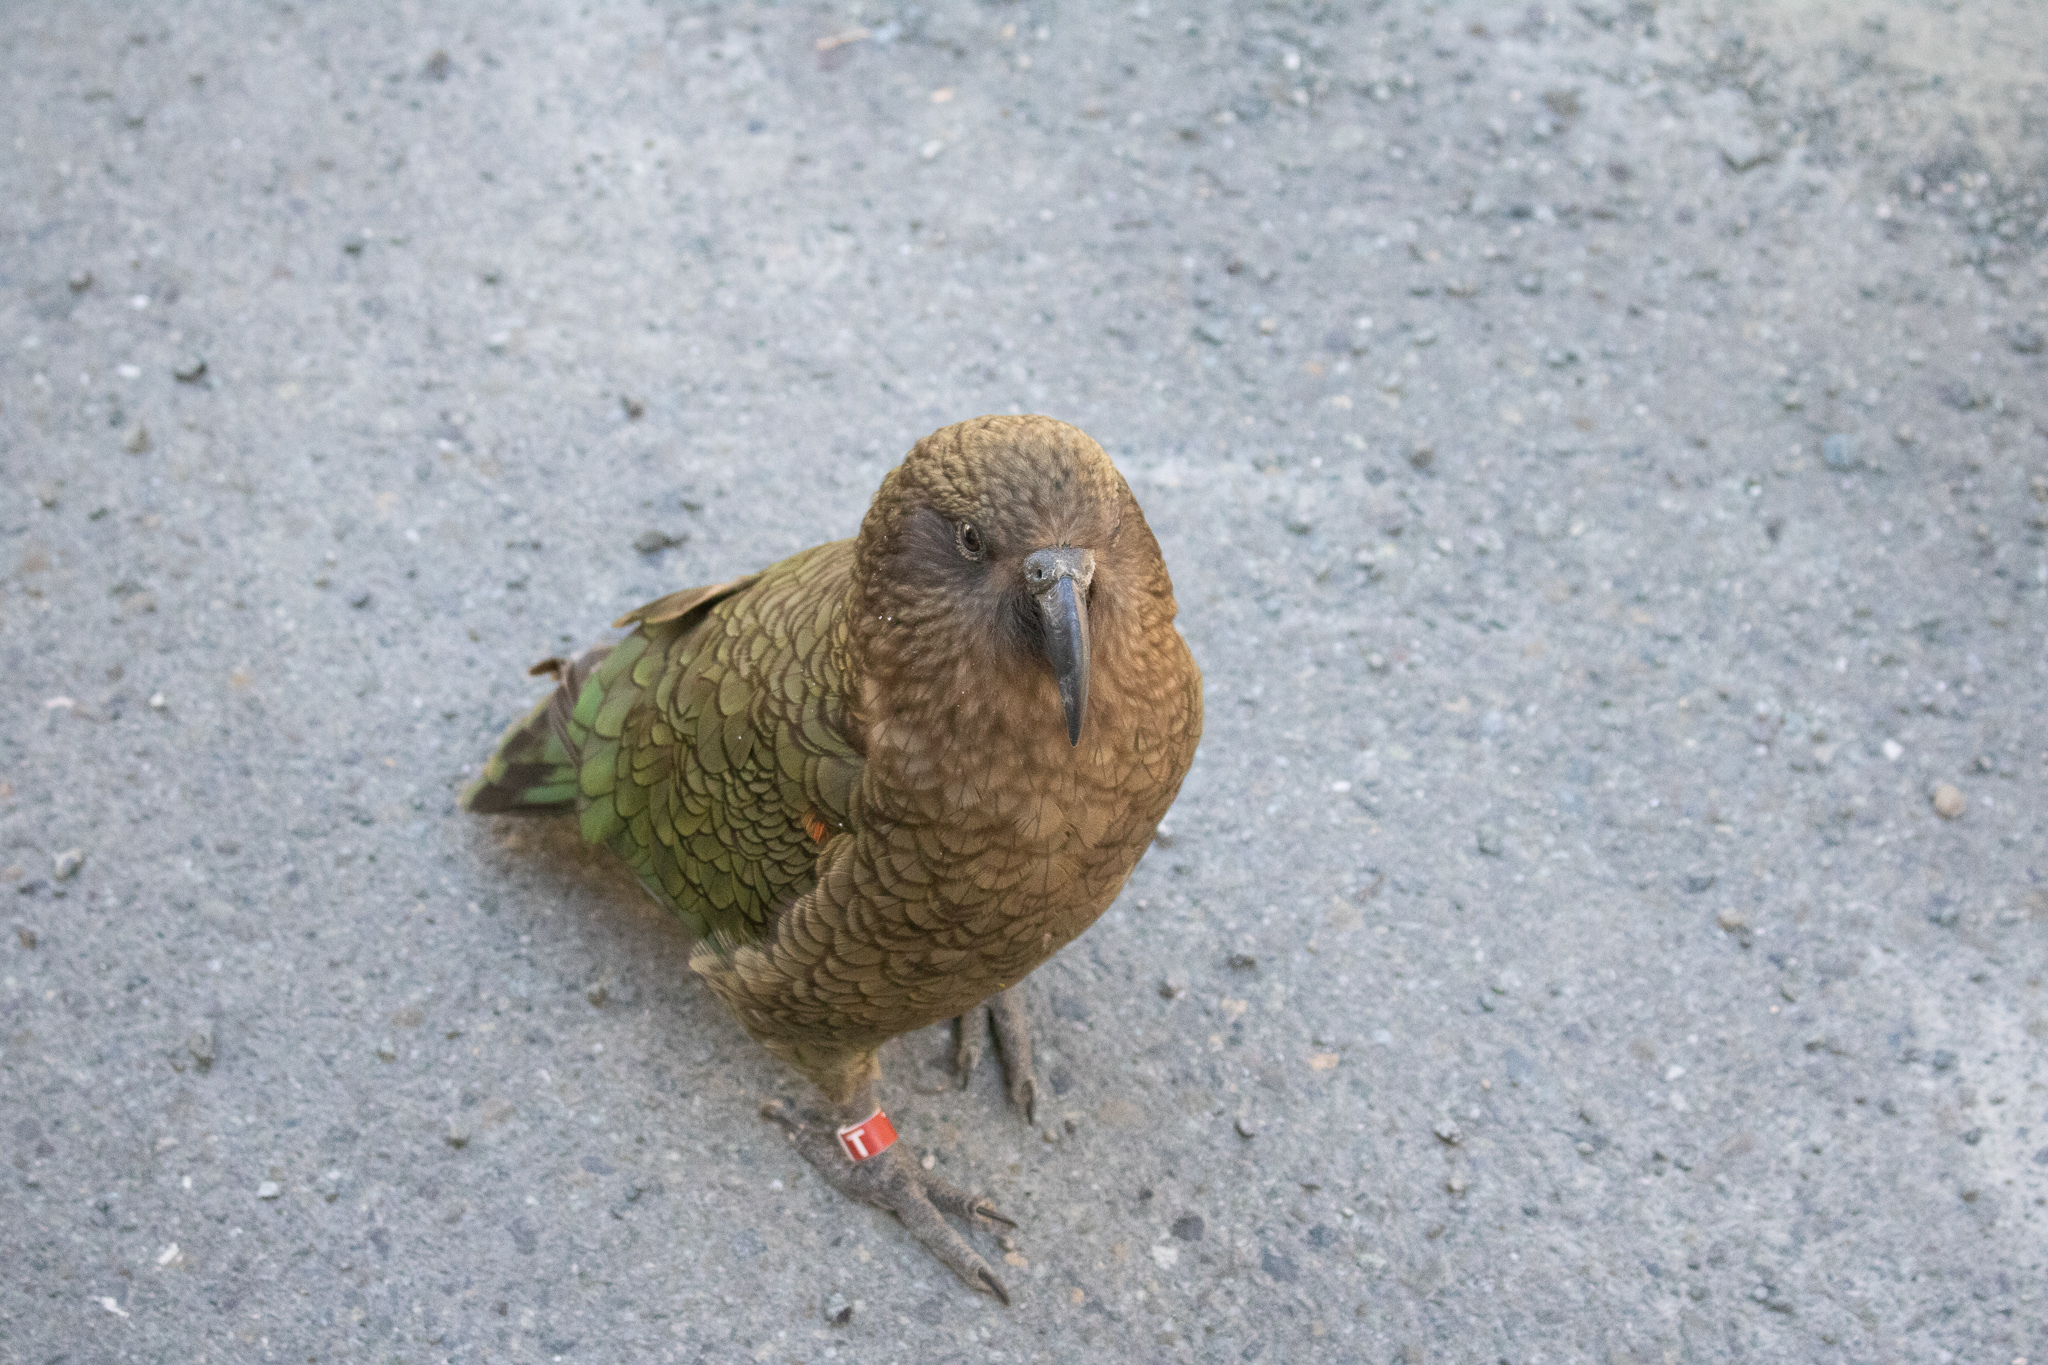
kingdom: Animalia
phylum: Chordata
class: Aves
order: Psittaciformes
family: Psittacidae
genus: Nestor
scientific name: Nestor notabilis
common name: Kea
